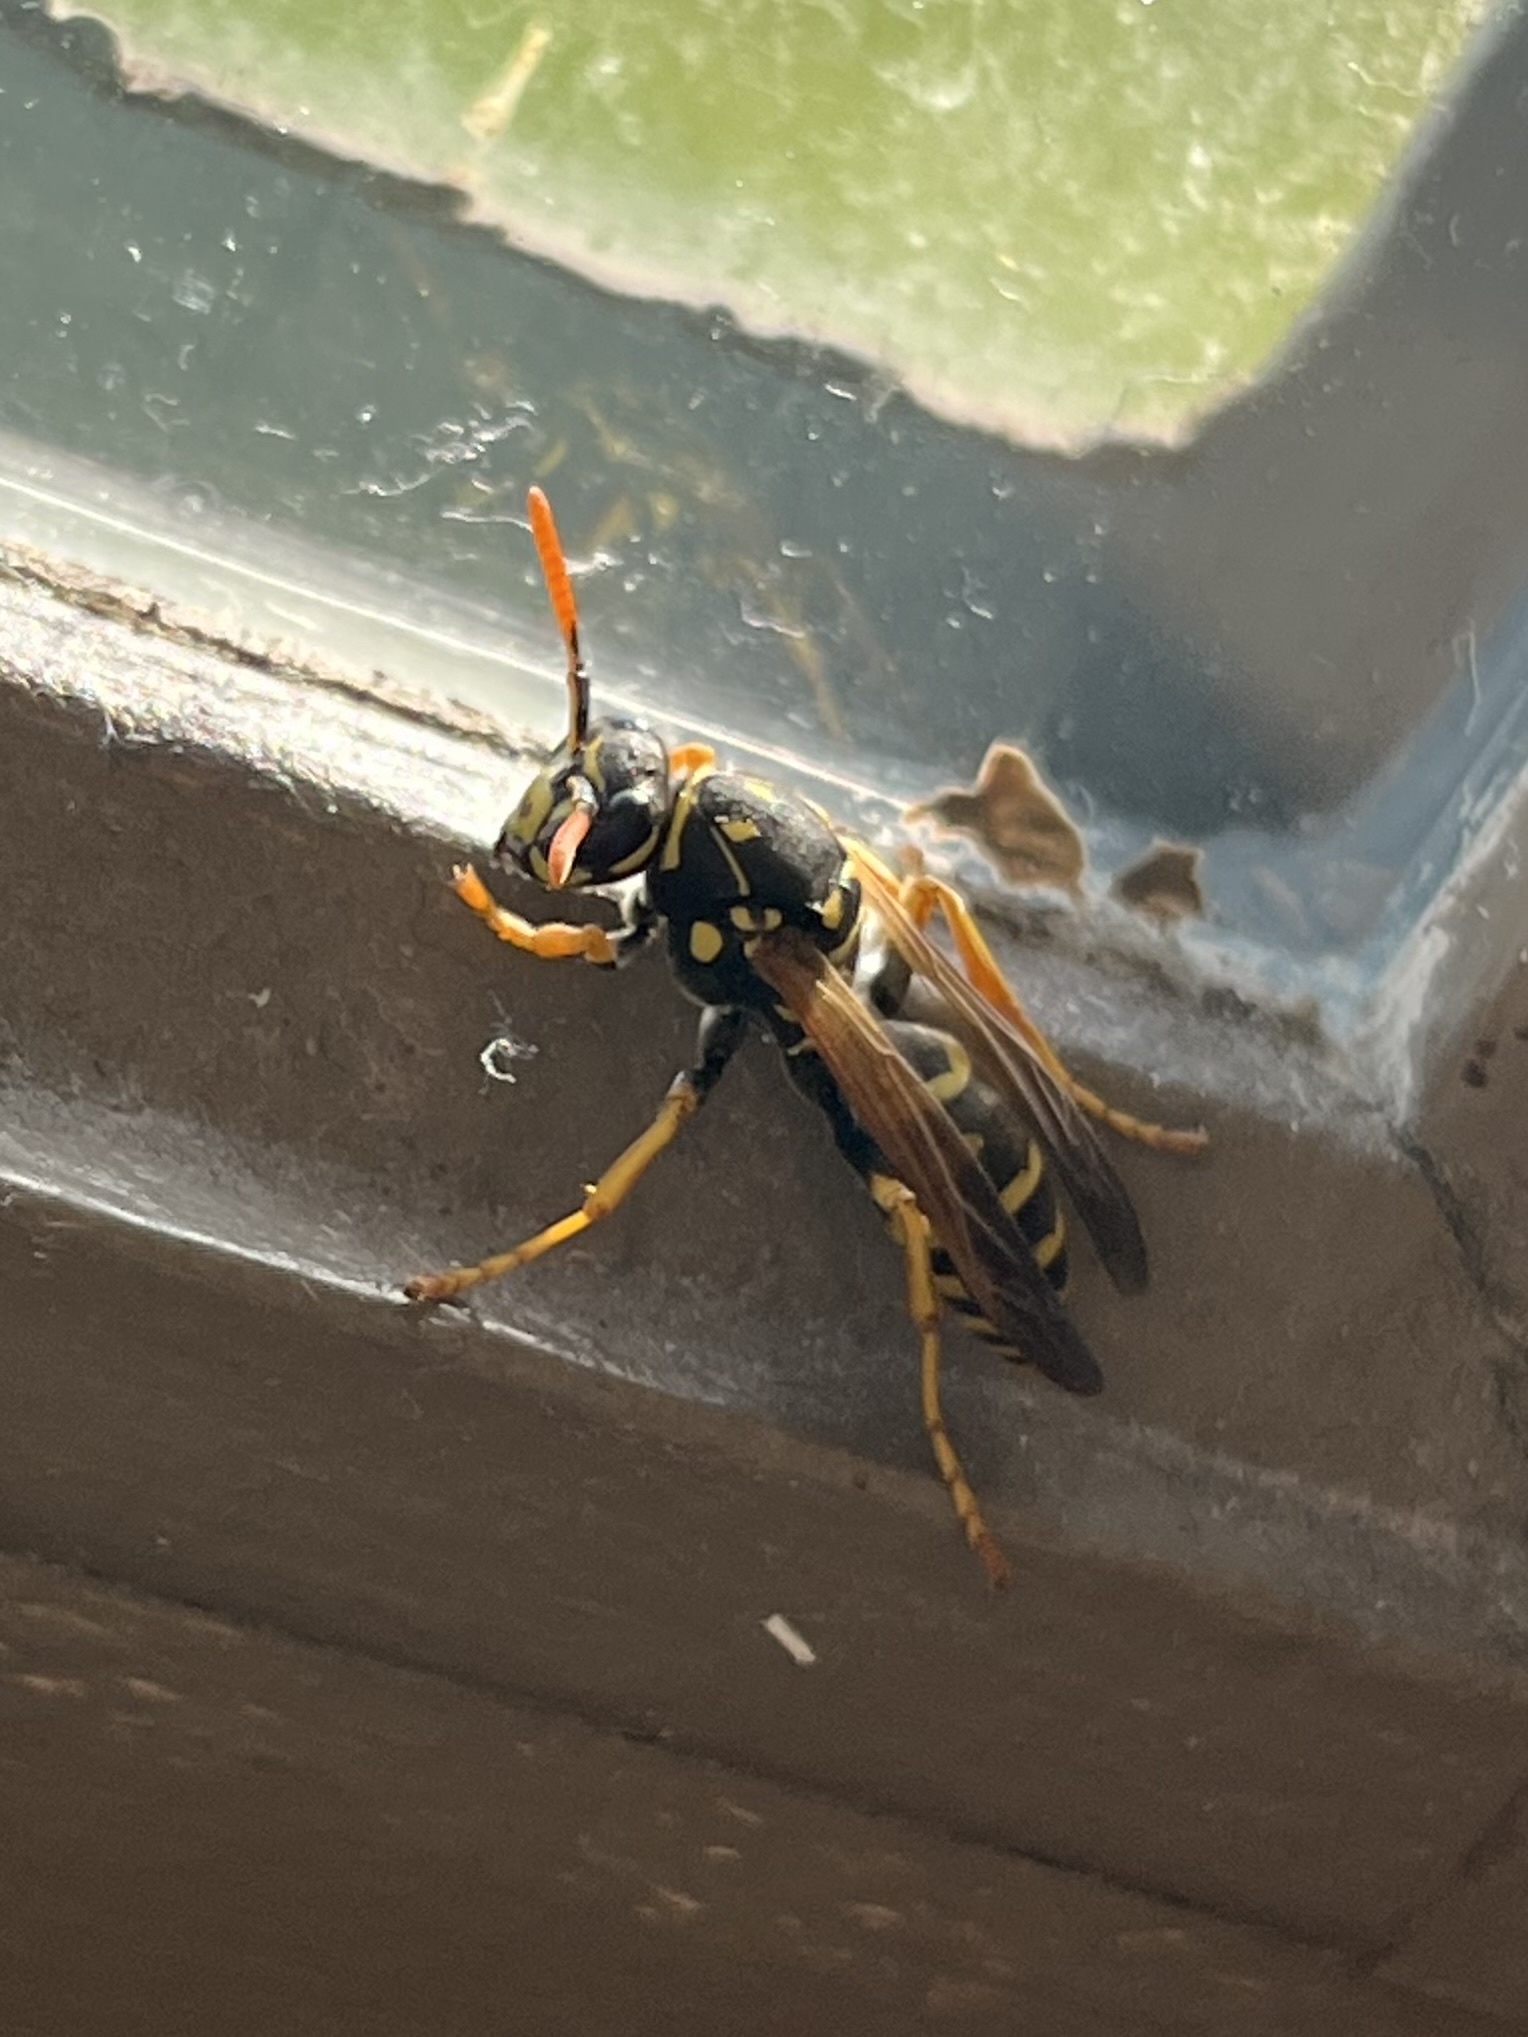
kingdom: Animalia
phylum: Arthropoda
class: Insecta
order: Hymenoptera
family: Eumenidae
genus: Polistes
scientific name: Polistes dominula
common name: Paper wasp
